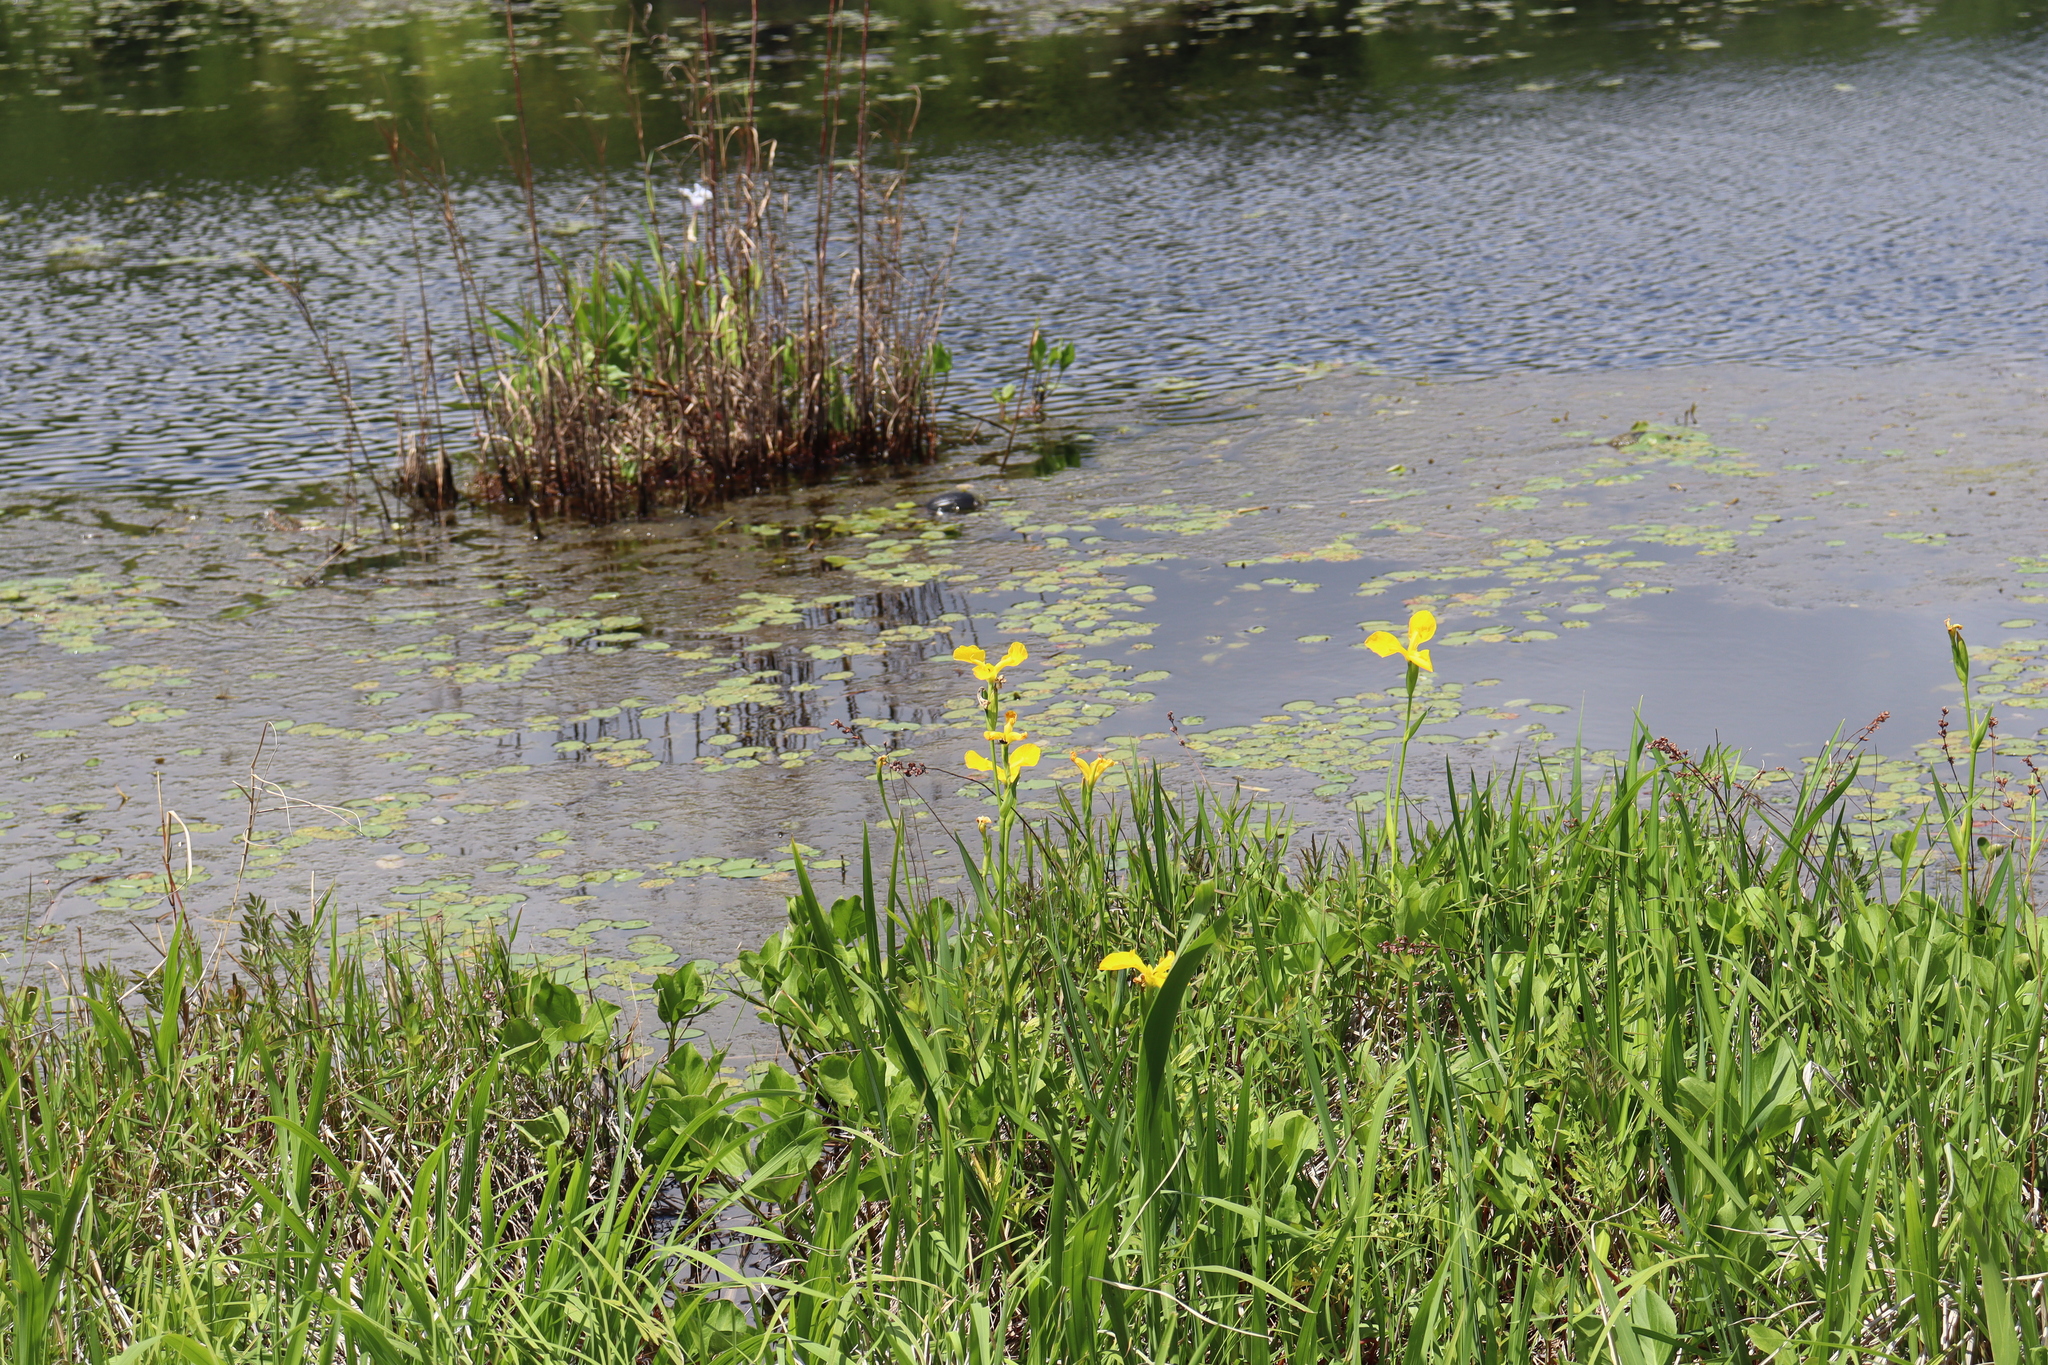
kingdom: Plantae
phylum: Tracheophyta
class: Liliopsida
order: Asparagales
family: Iridaceae
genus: Iris
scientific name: Iris pseudacorus
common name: Yellow flag
